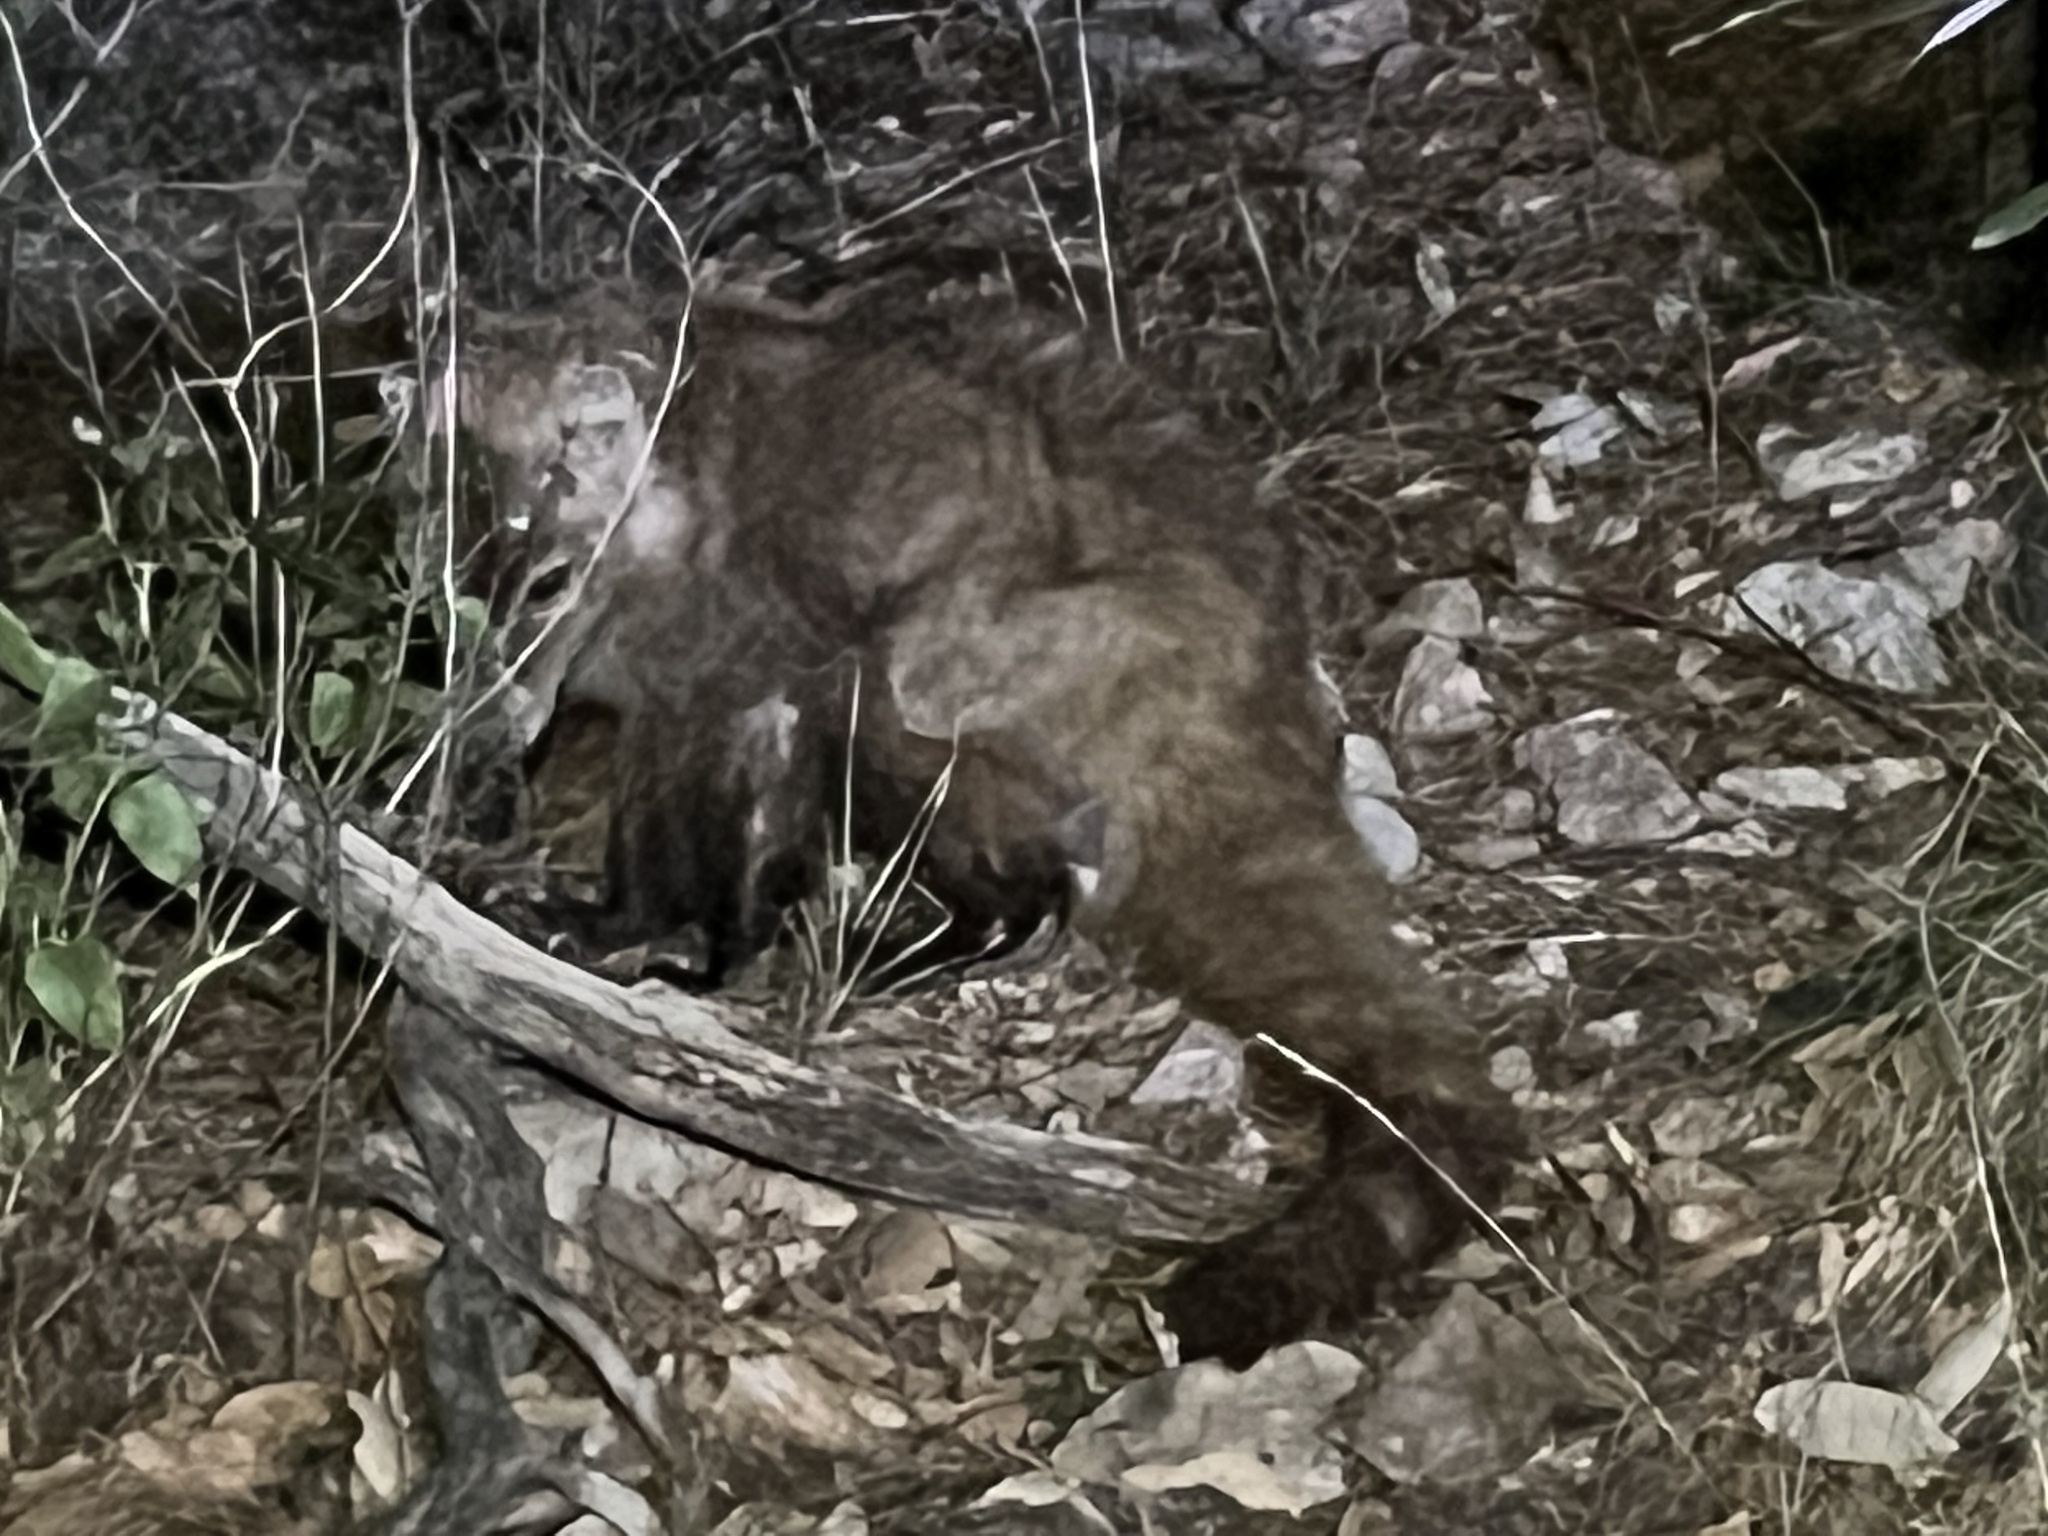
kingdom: Animalia
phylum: Chordata
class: Mammalia
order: Carnivora
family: Procyonidae
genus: Nasua
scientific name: Nasua narica
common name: White-nosed coati
